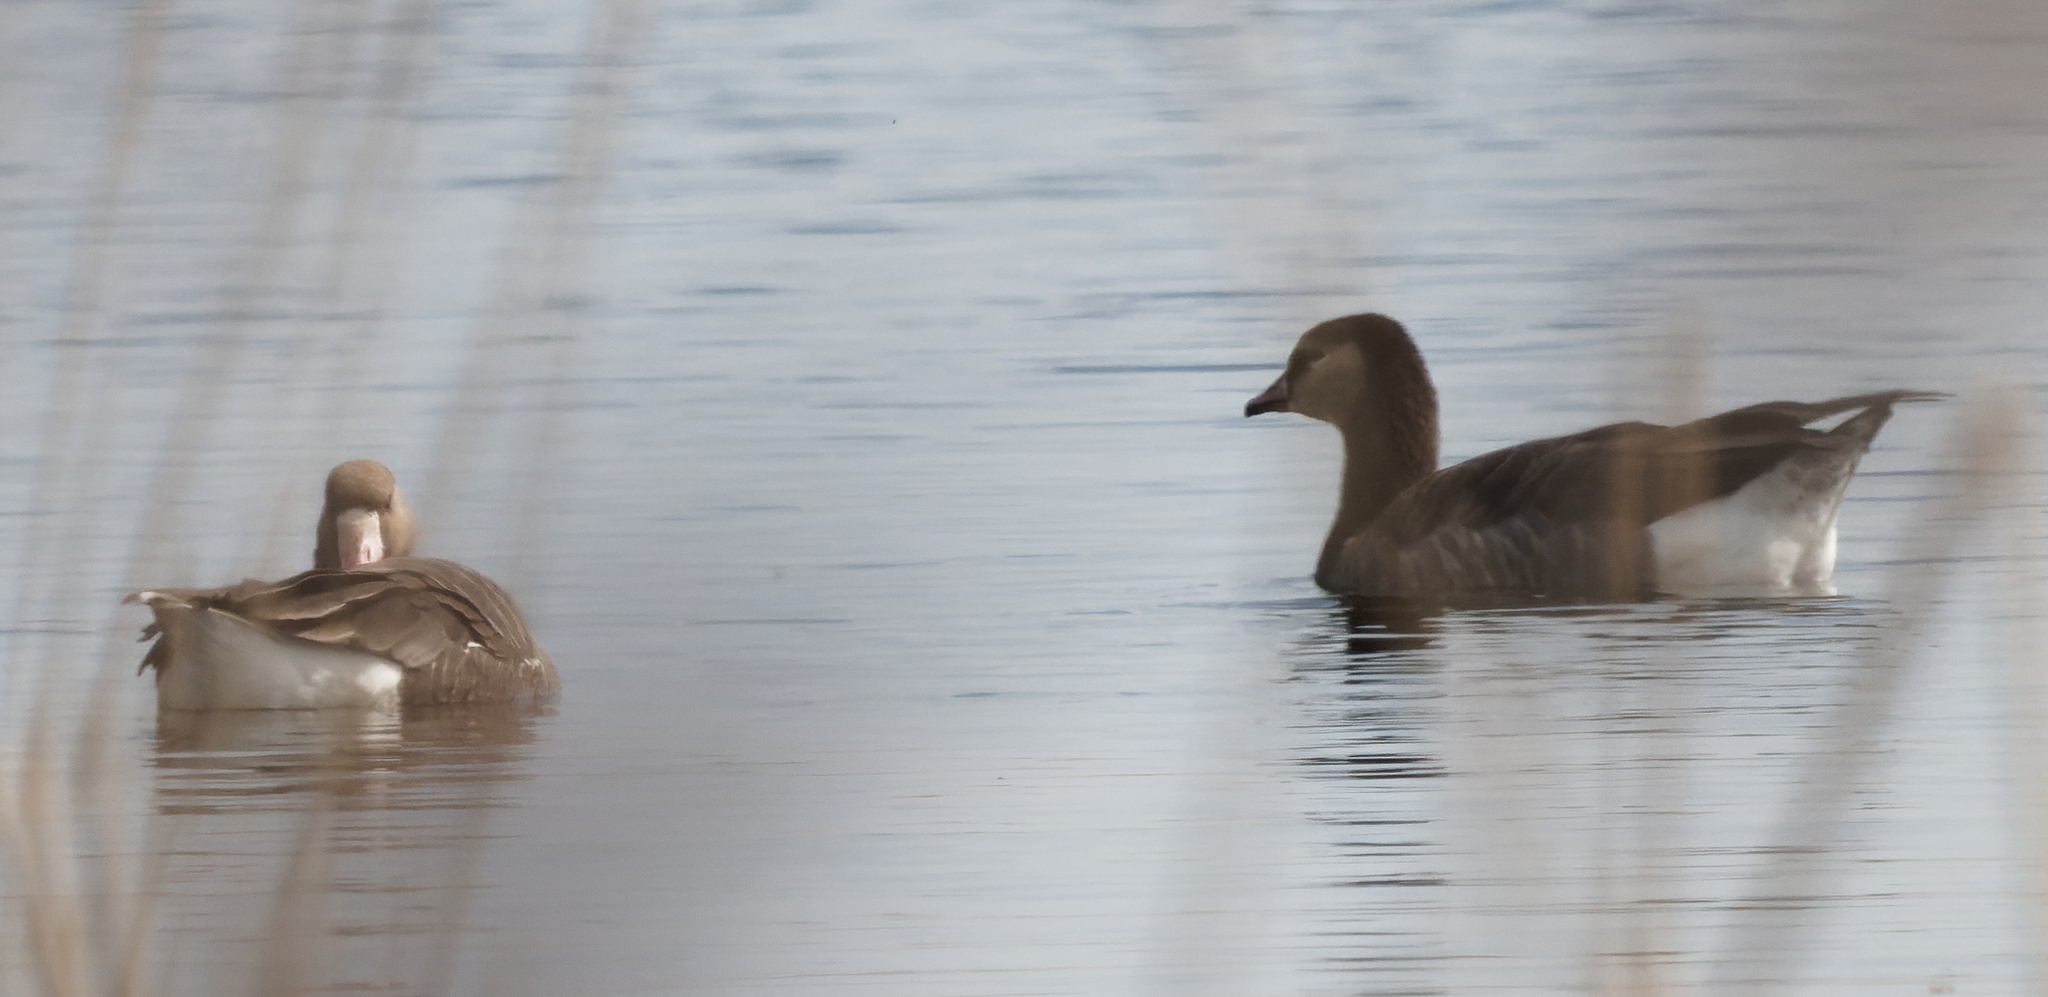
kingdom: Animalia
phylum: Chordata
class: Aves
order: Anseriformes
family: Anatidae
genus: Anser
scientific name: Anser albifrons
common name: Greater white-fronted goose
